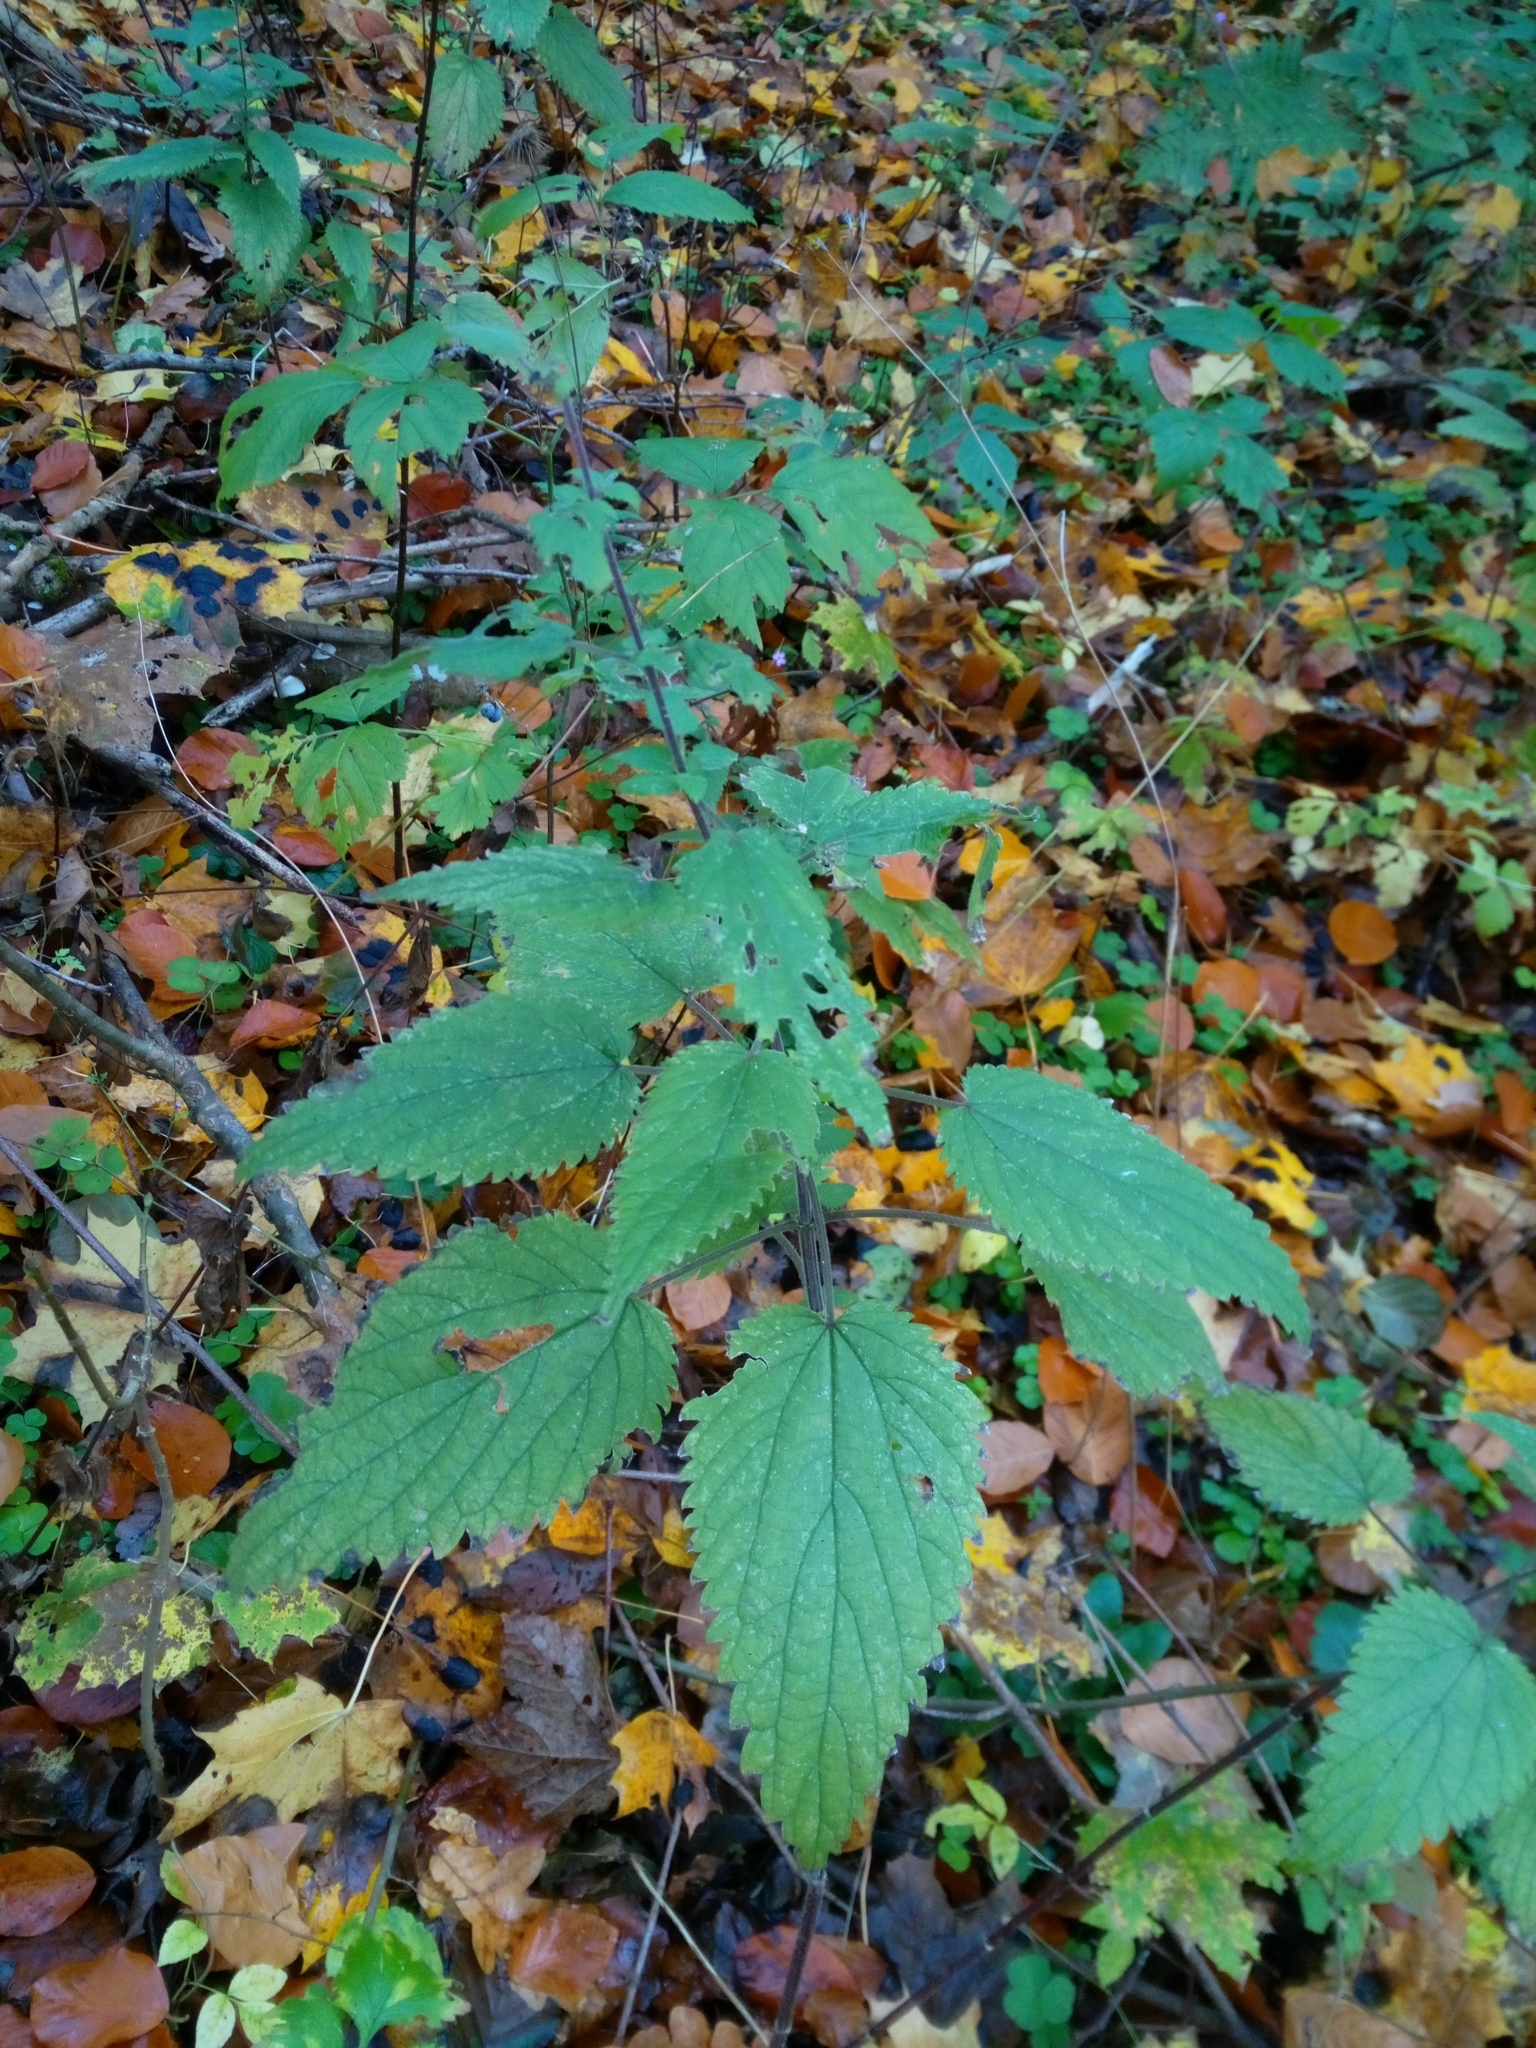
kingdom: Plantae
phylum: Tracheophyta
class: Magnoliopsida
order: Rosales
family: Urticaceae
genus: Urtica
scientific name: Urtica dioica
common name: Common nettle
